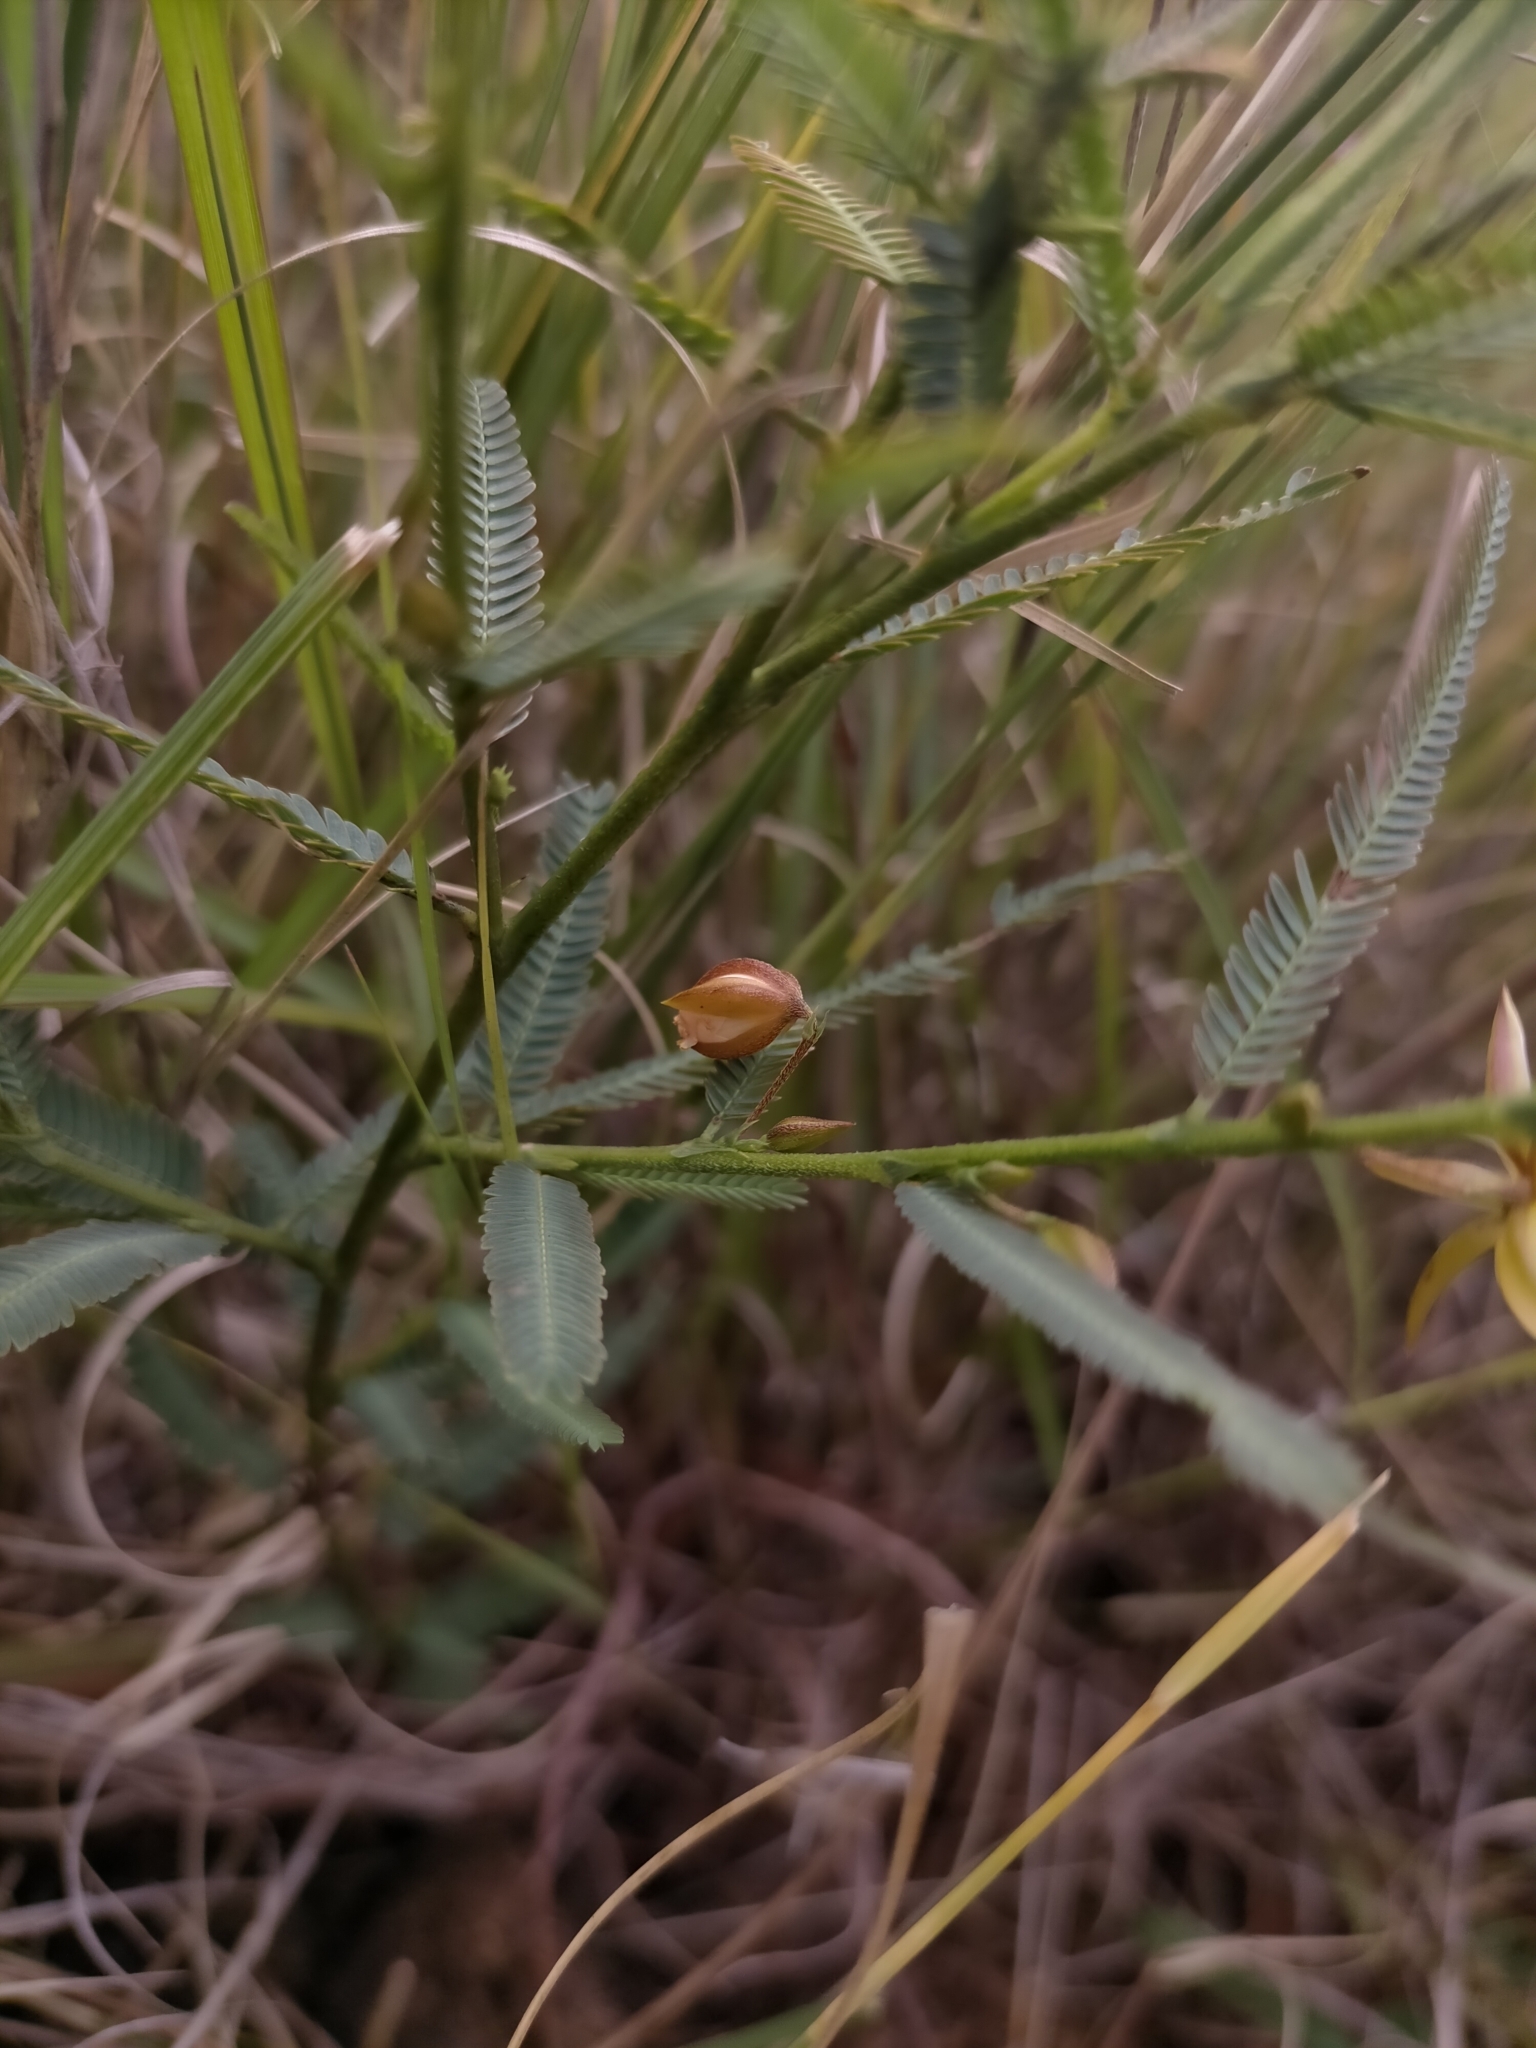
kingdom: Plantae
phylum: Tracheophyta
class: Magnoliopsida
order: Fabales
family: Fabaceae
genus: Chamaecrista
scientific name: Chamaecrista lateriticola
